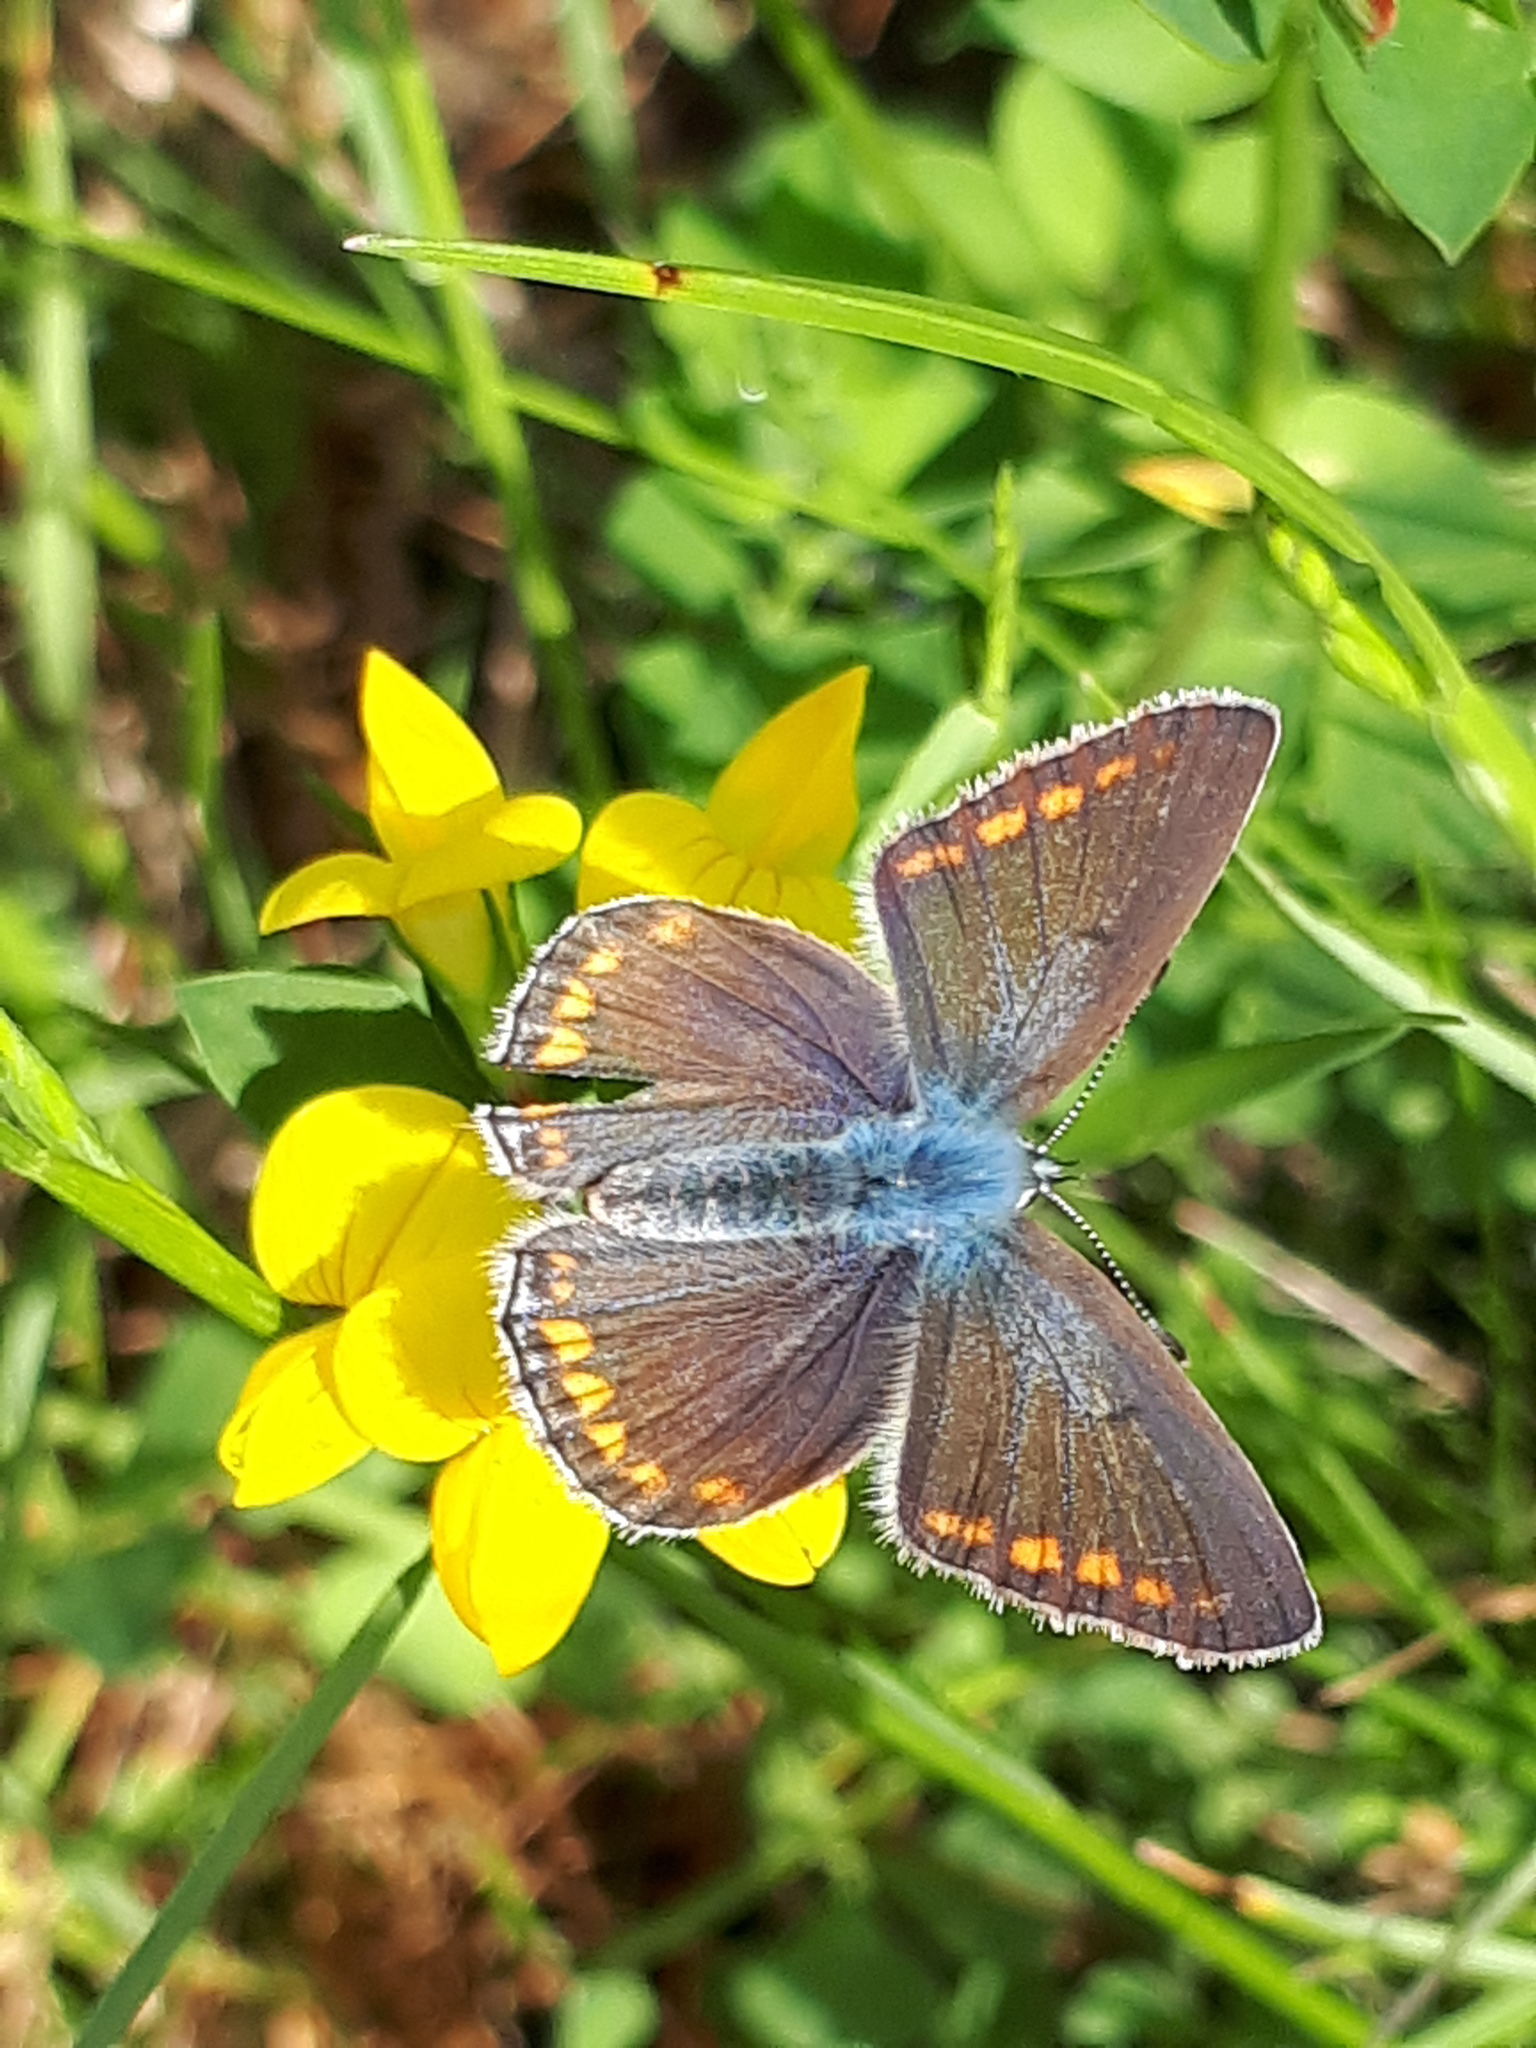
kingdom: Animalia
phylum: Arthropoda
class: Insecta
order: Lepidoptera
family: Lycaenidae
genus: Polyommatus
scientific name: Polyommatus icarus
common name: Common blue
